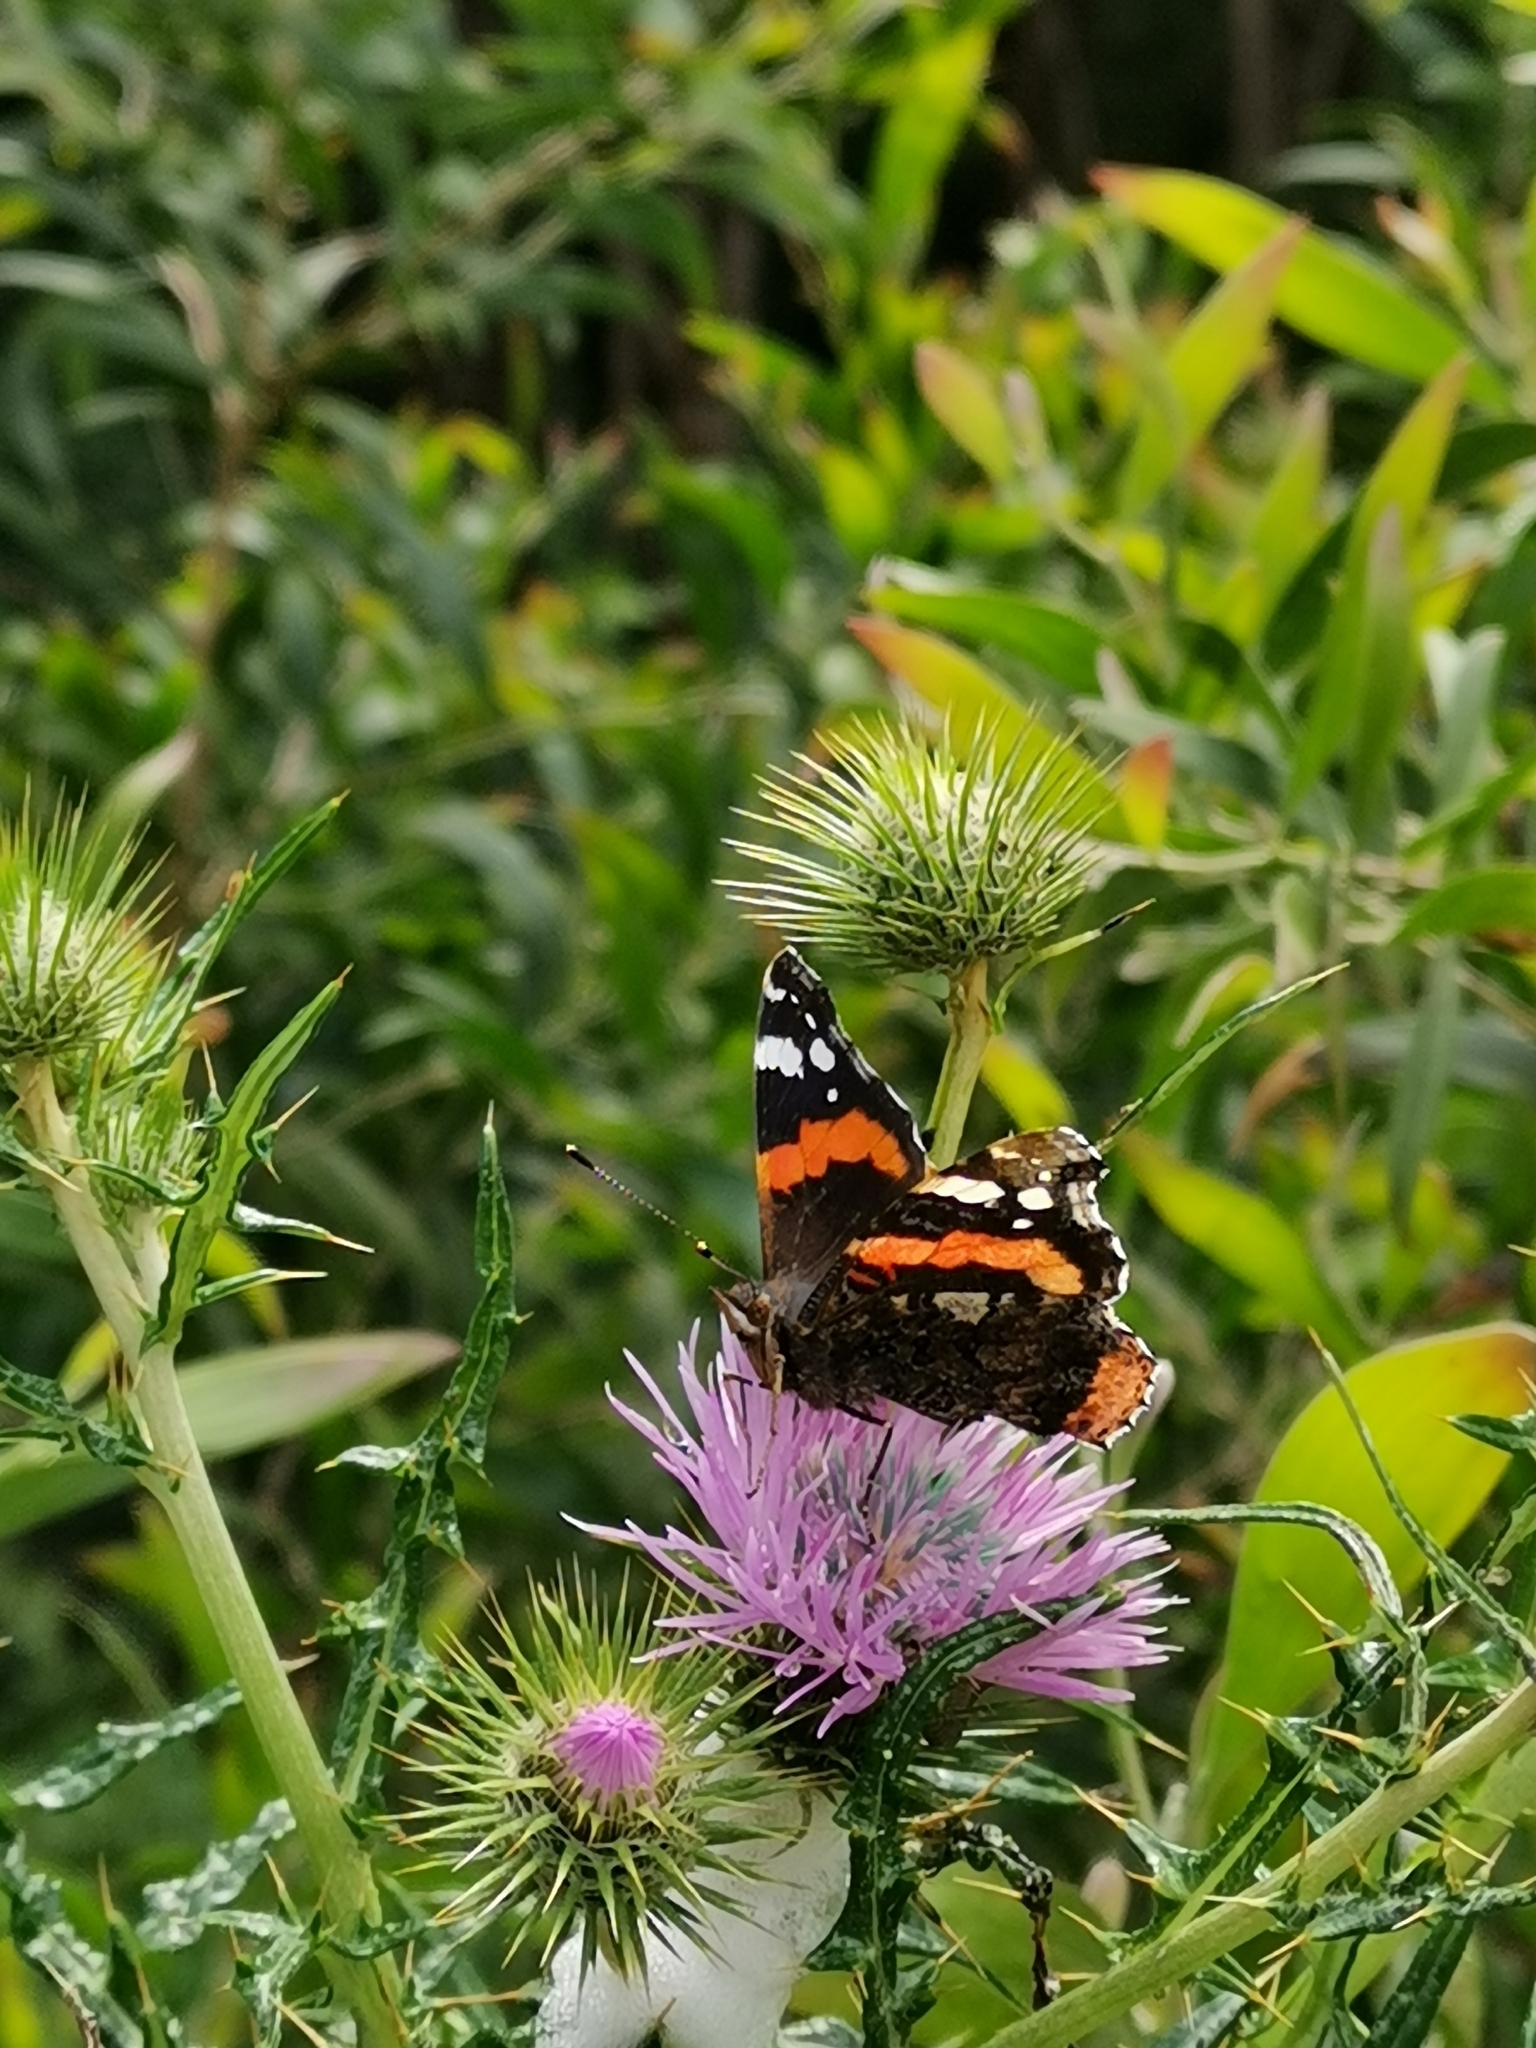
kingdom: Animalia
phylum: Arthropoda
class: Insecta
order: Lepidoptera
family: Nymphalidae
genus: Vanessa
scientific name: Vanessa atalanta
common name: Red admiral
